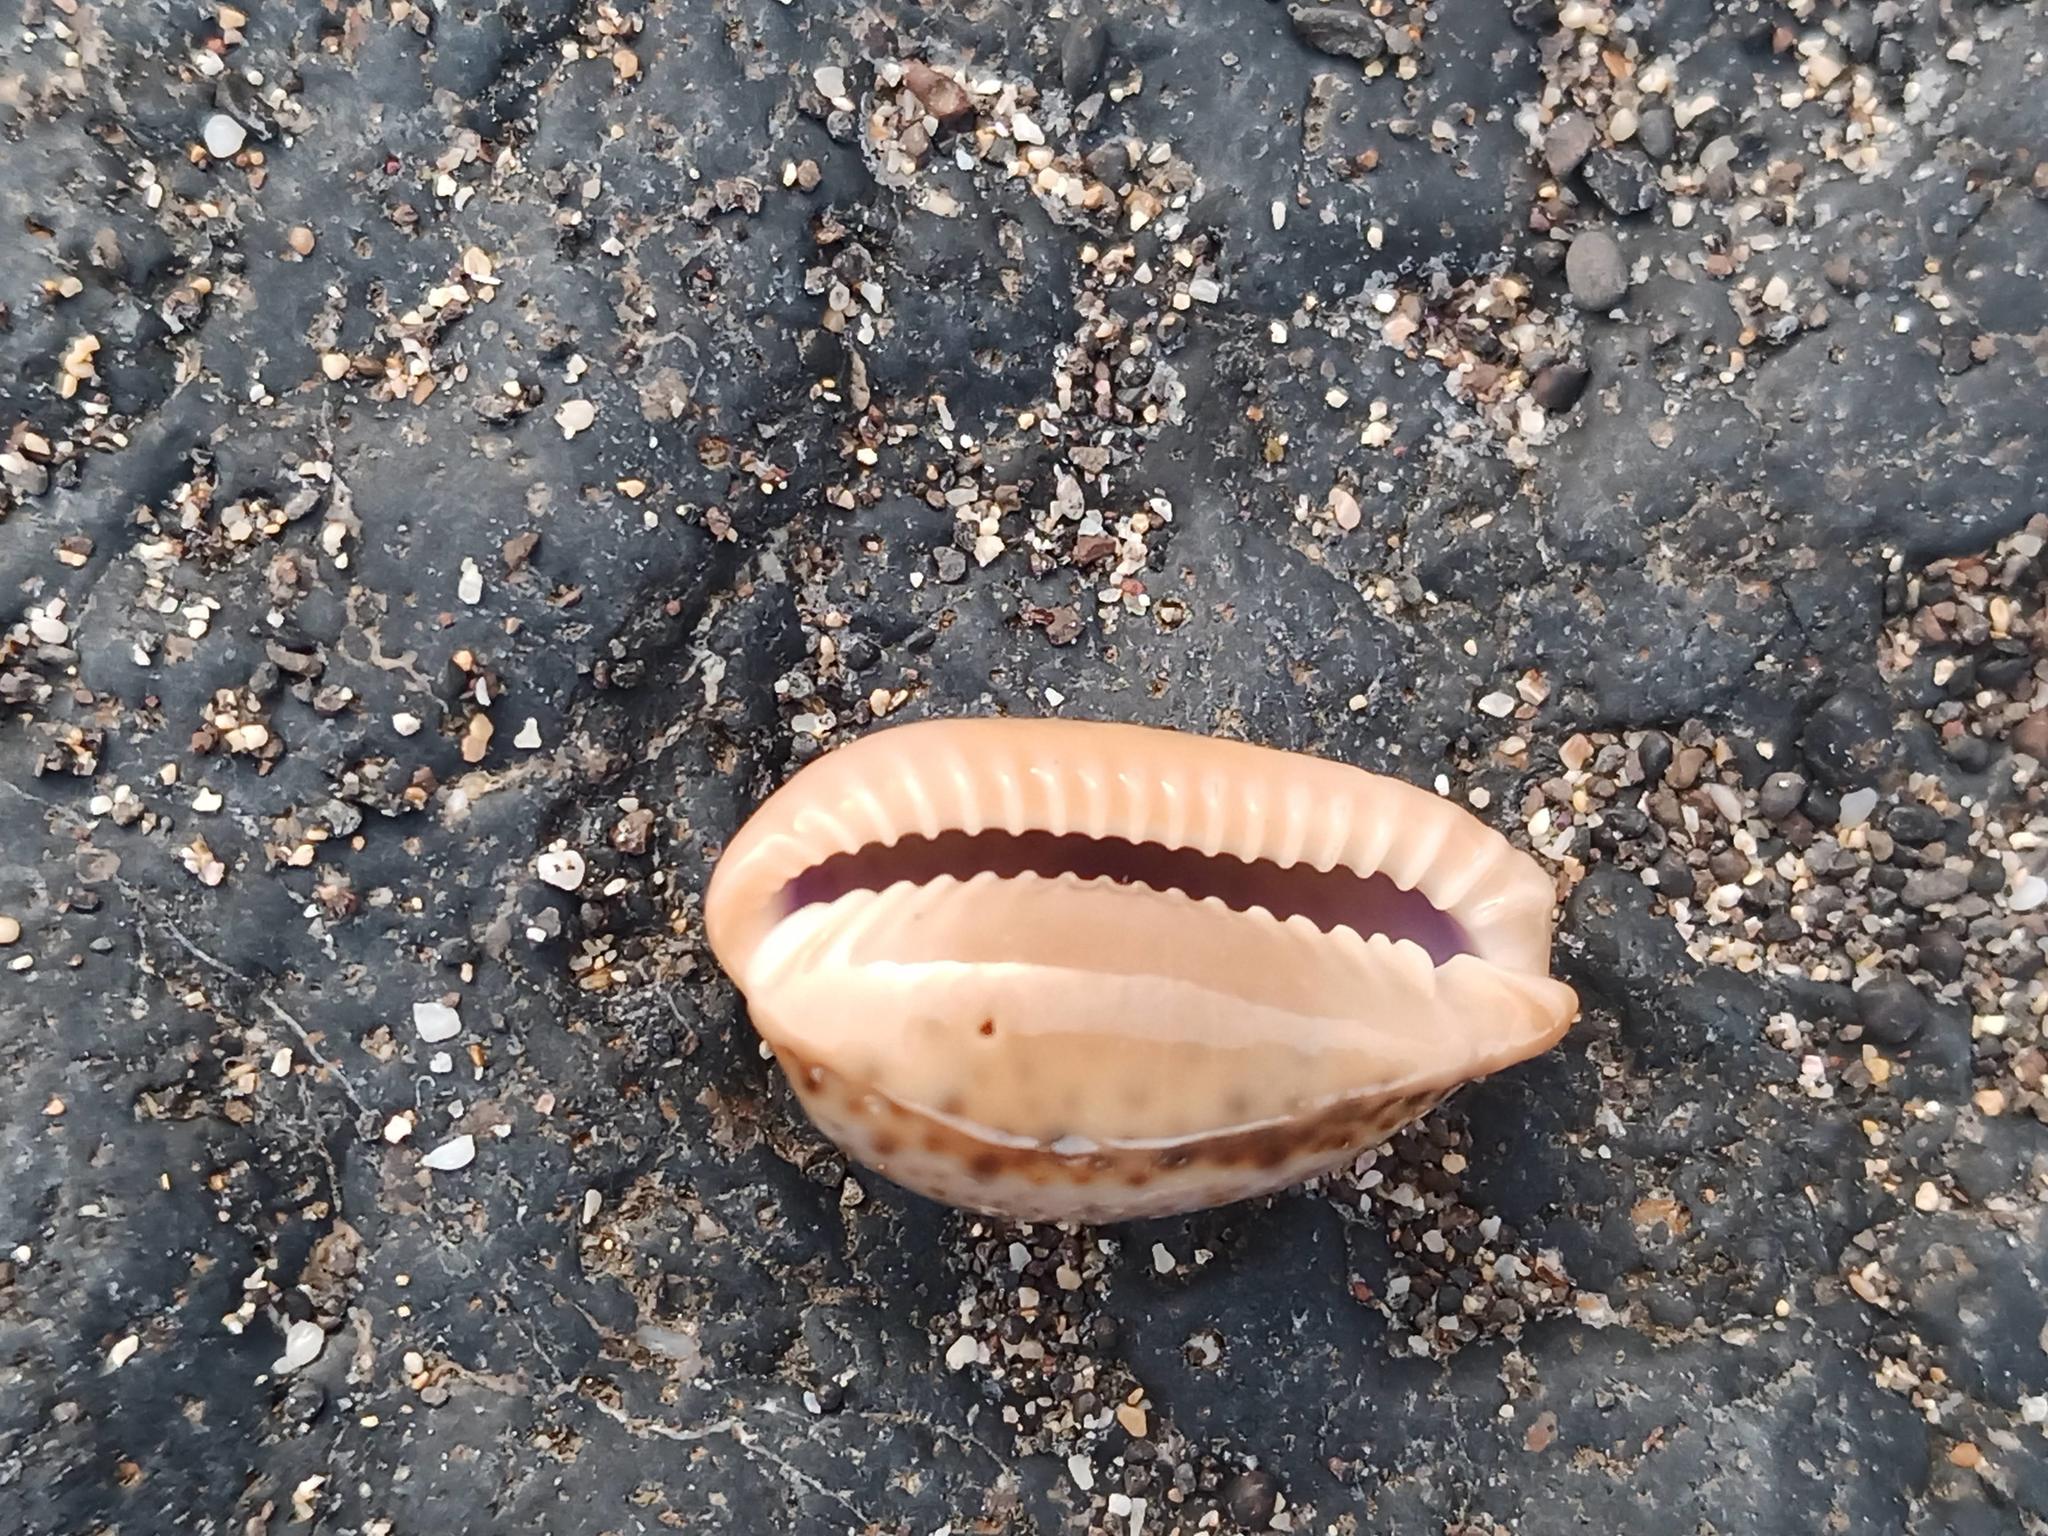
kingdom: Animalia
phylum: Mollusca
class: Gastropoda
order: Littorinimorpha
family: Cypraeidae
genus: Naria
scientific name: Naria spurca
